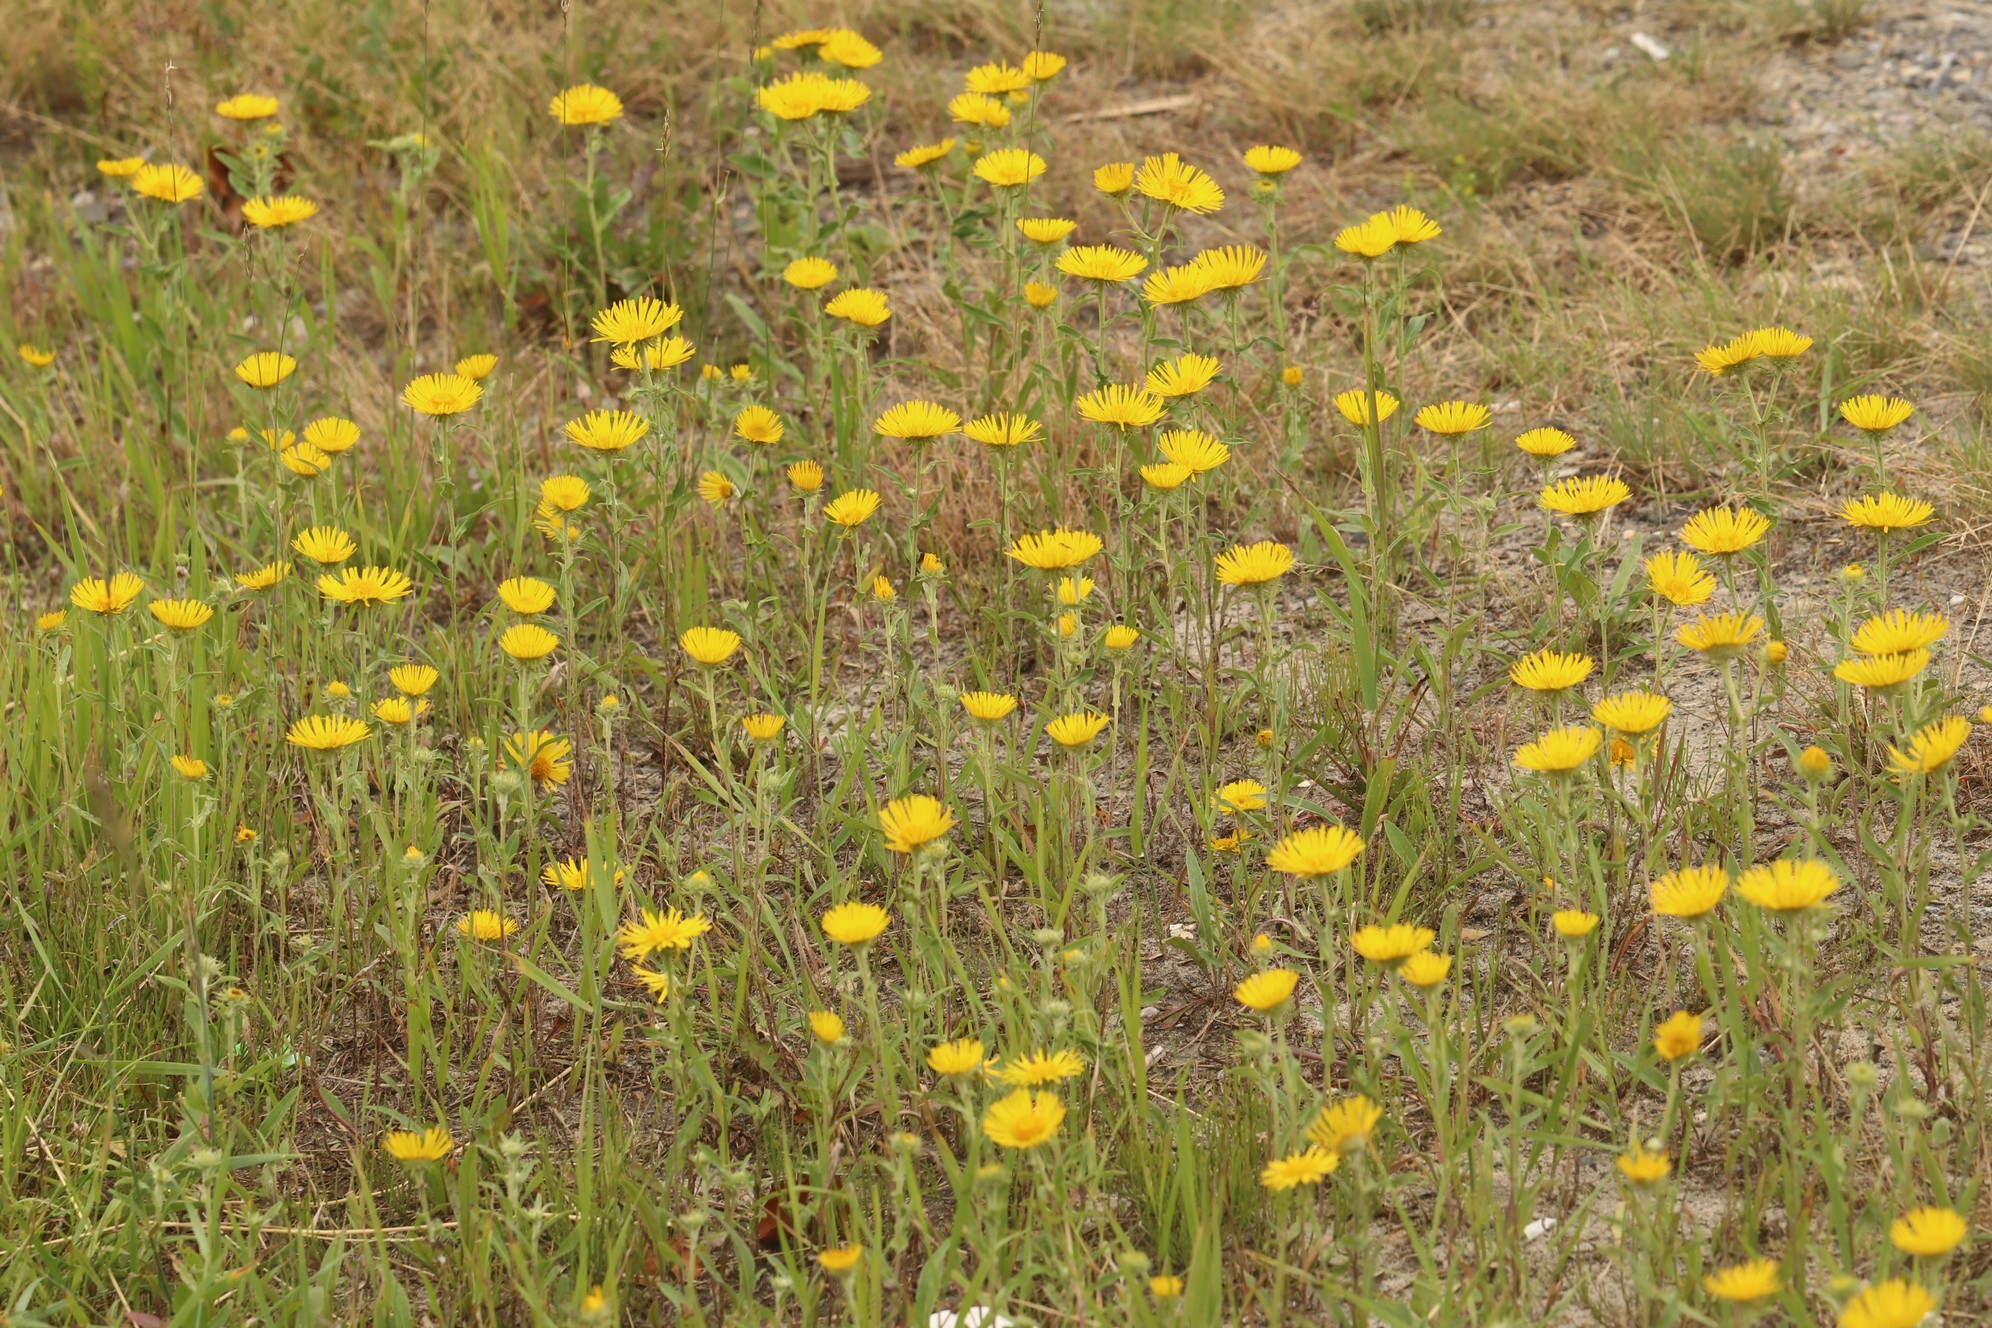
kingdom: Plantae
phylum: Tracheophyta
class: Magnoliopsida
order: Asterales
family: Asteraceae
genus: Pentanema
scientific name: Pentanema britannicum
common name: British elecampane
